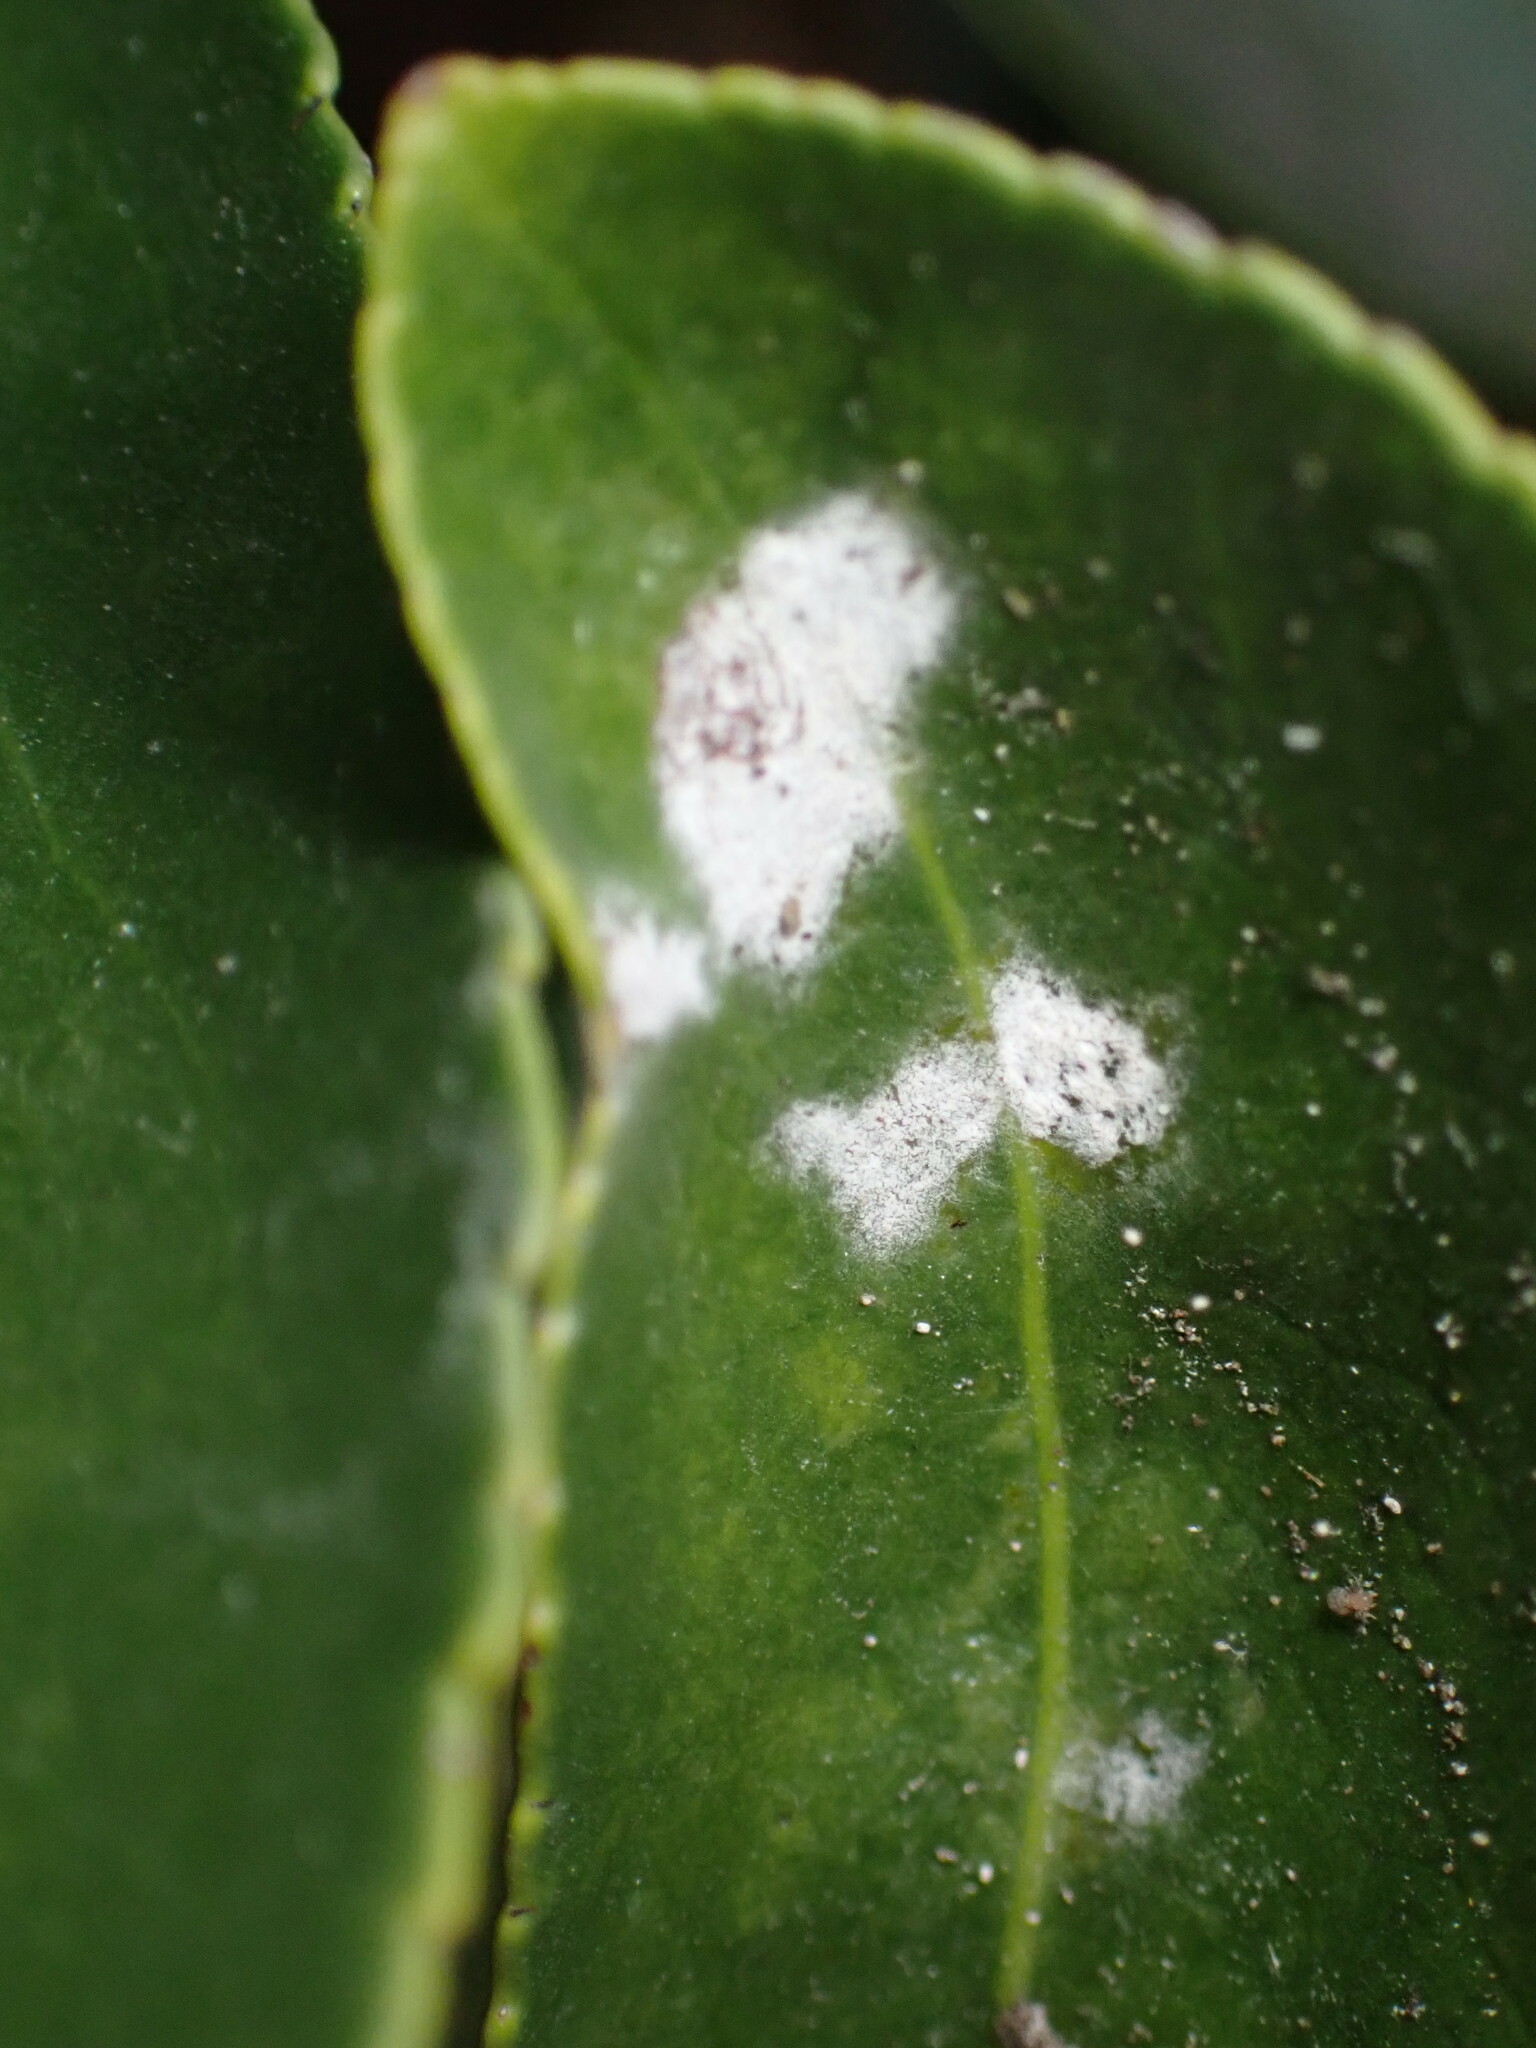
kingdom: Fungi
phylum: Ascomycota
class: Leotiomycetes
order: Helotiales
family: Erysiphaceae
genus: Erysiphe
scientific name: Erysiphe euonymicola
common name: Spindletree mildew
